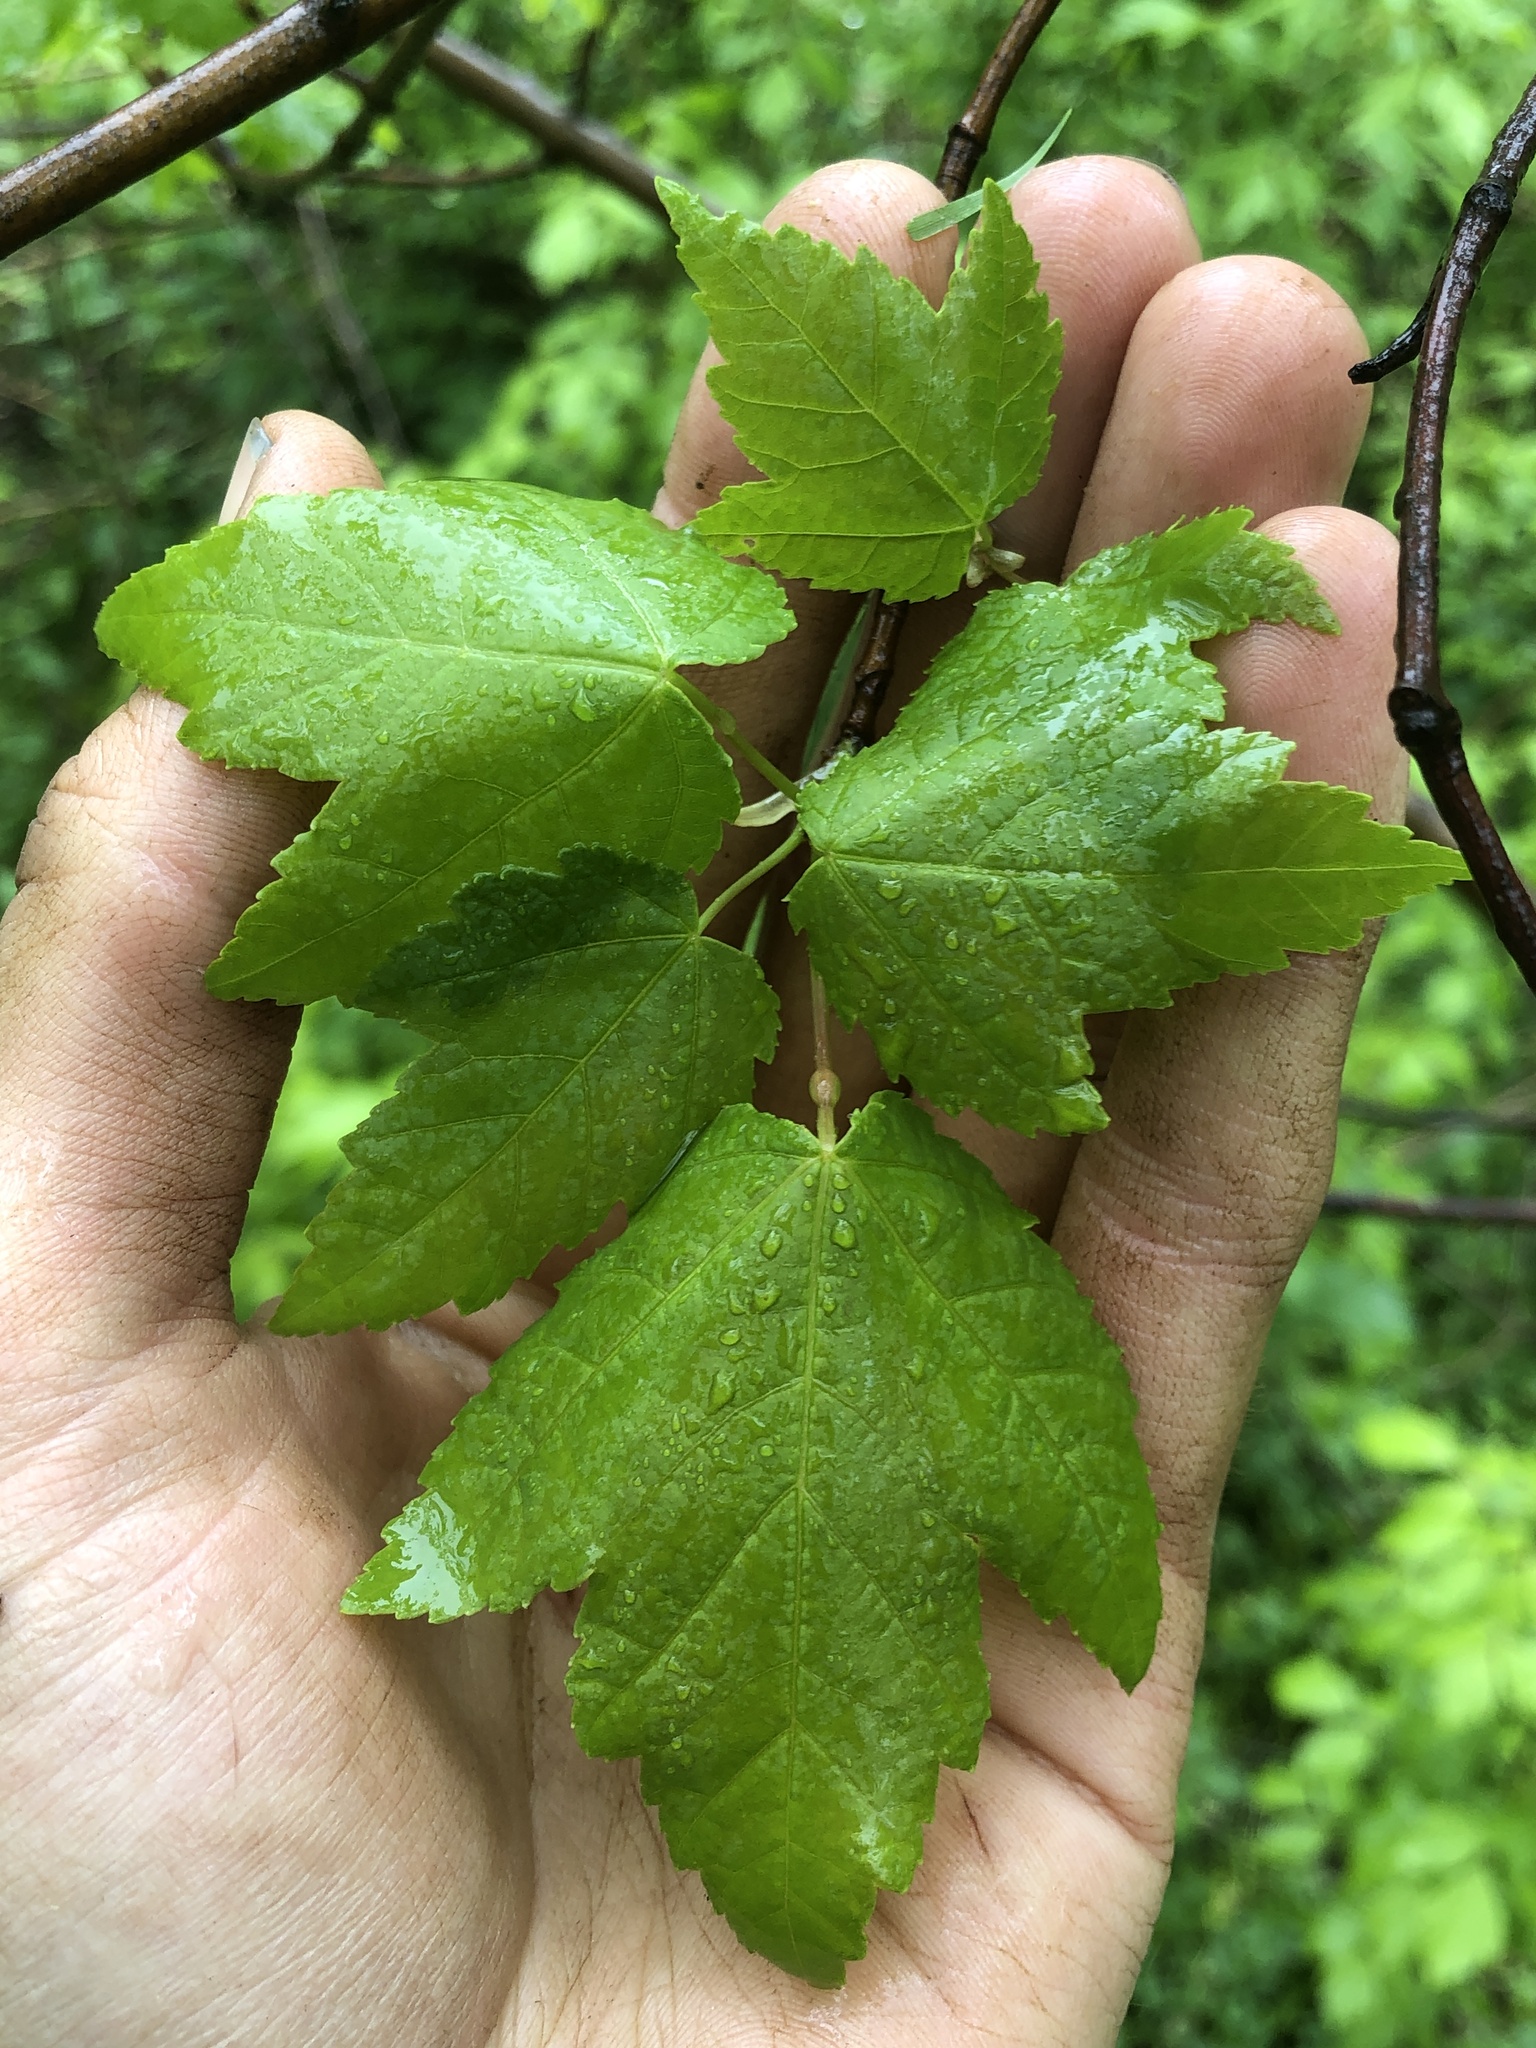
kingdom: Plantae
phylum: Tracheophyta
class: Magnoliopsida
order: Sapindales
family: Sapindaceae
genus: Acer
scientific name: Acer rubrum
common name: Red maple
